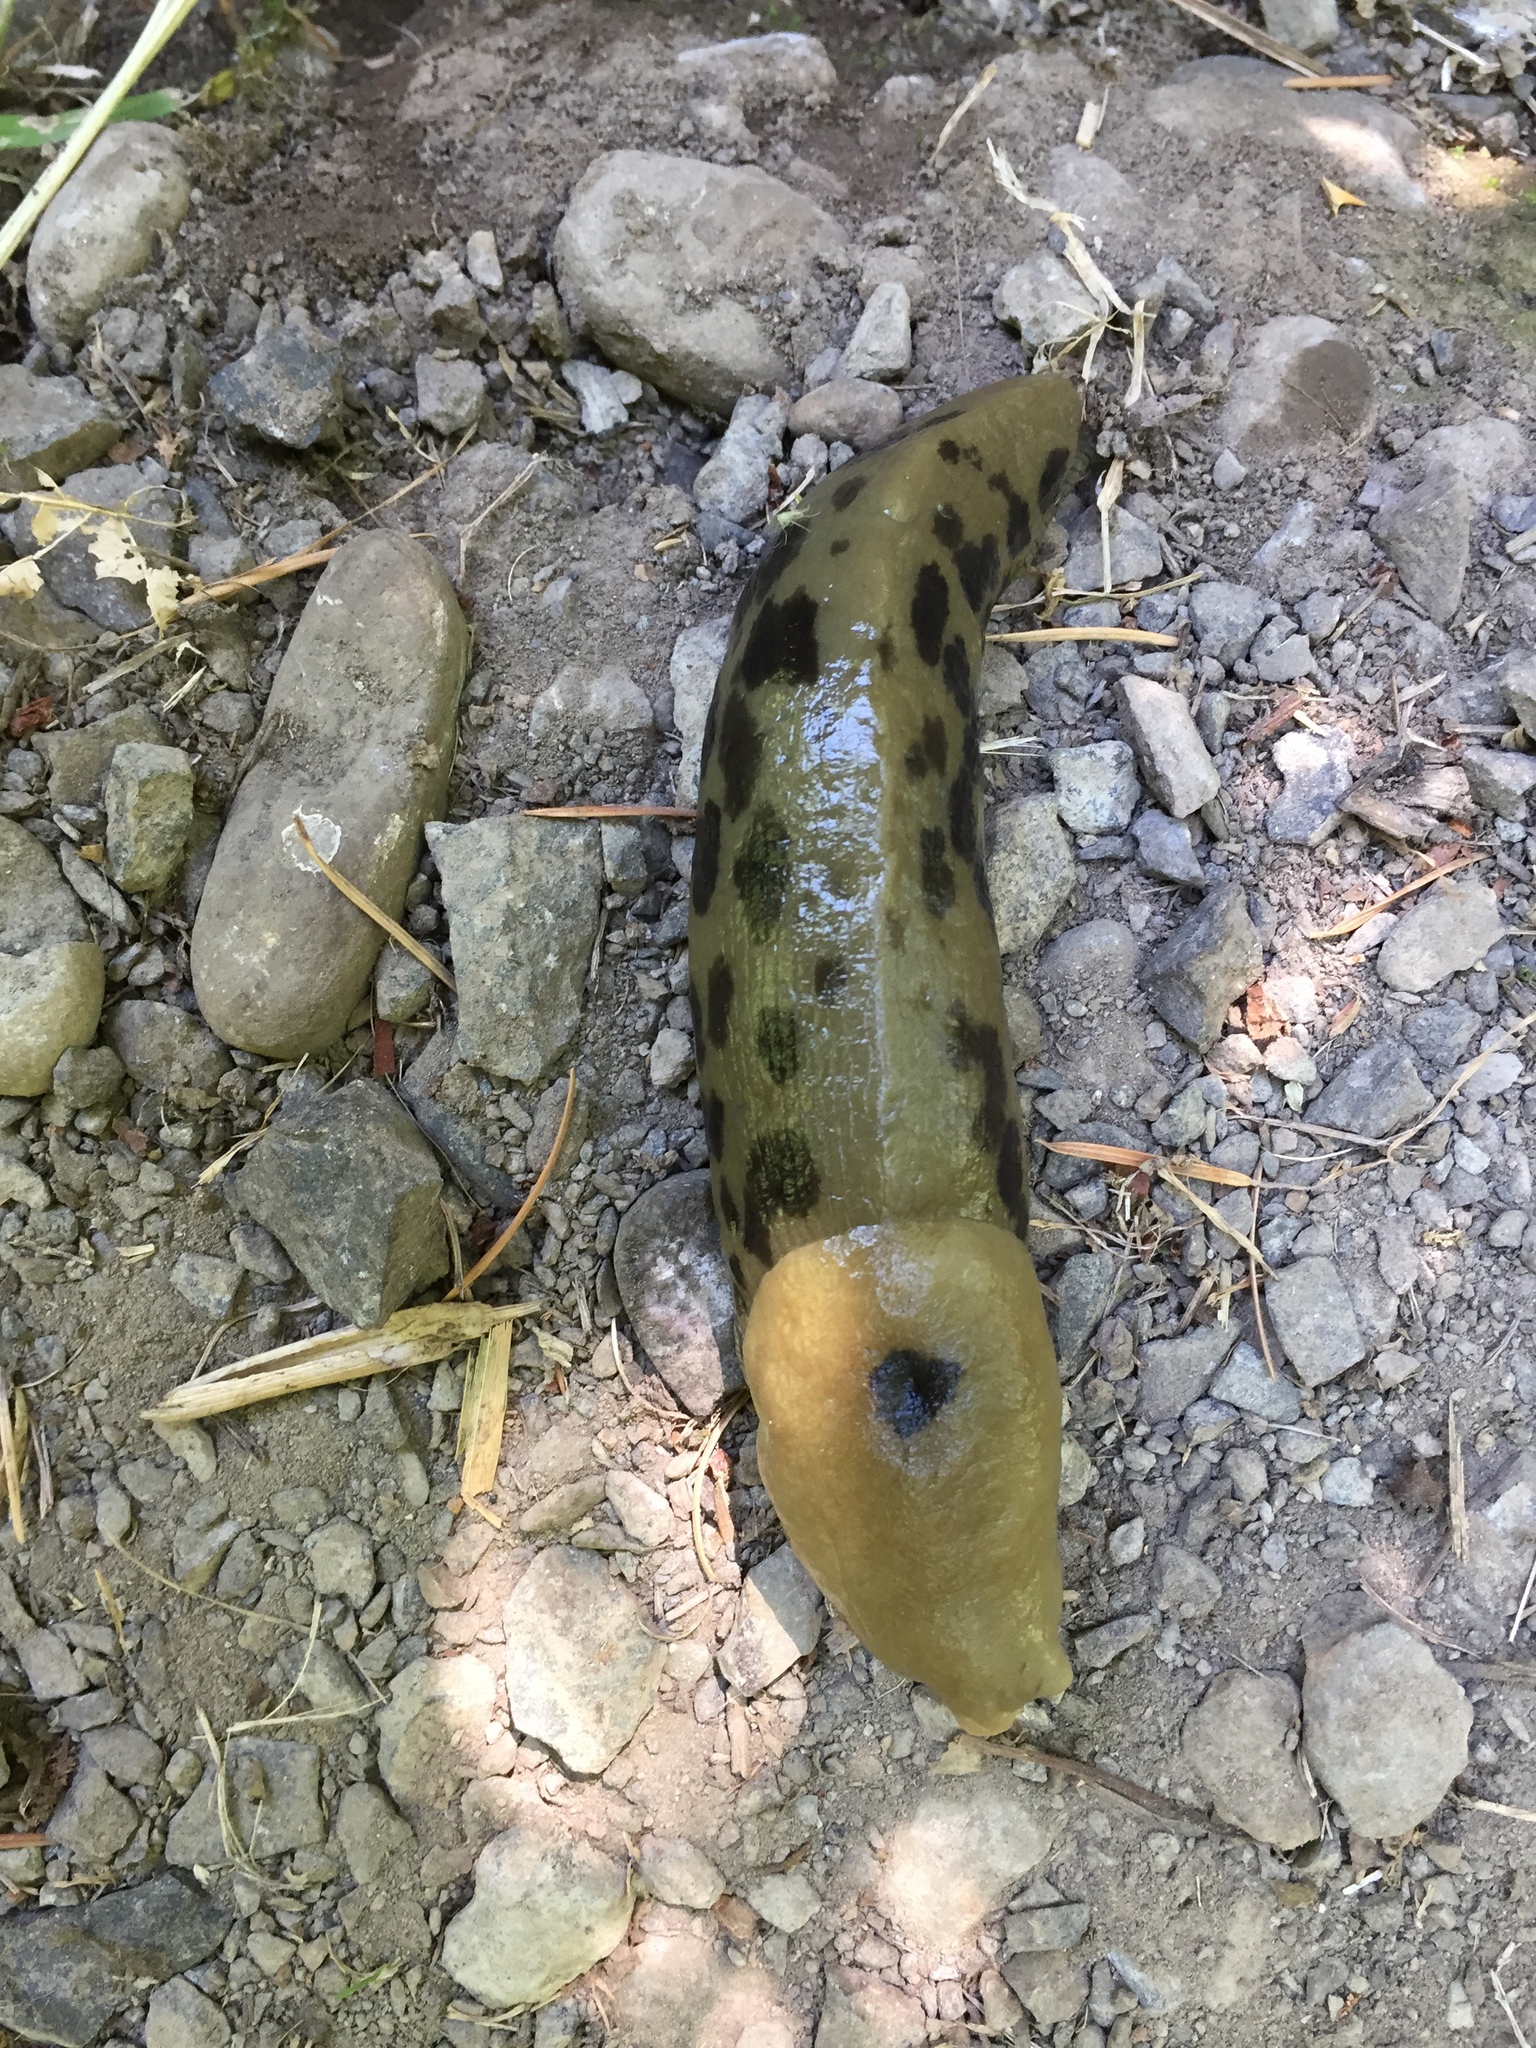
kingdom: Animalia
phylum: Mollusca
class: Gastropoda
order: Stylommatophora
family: Ariolimacidae
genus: Ariolimax
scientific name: Ariolimax columbianus
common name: Pacific banana slug
